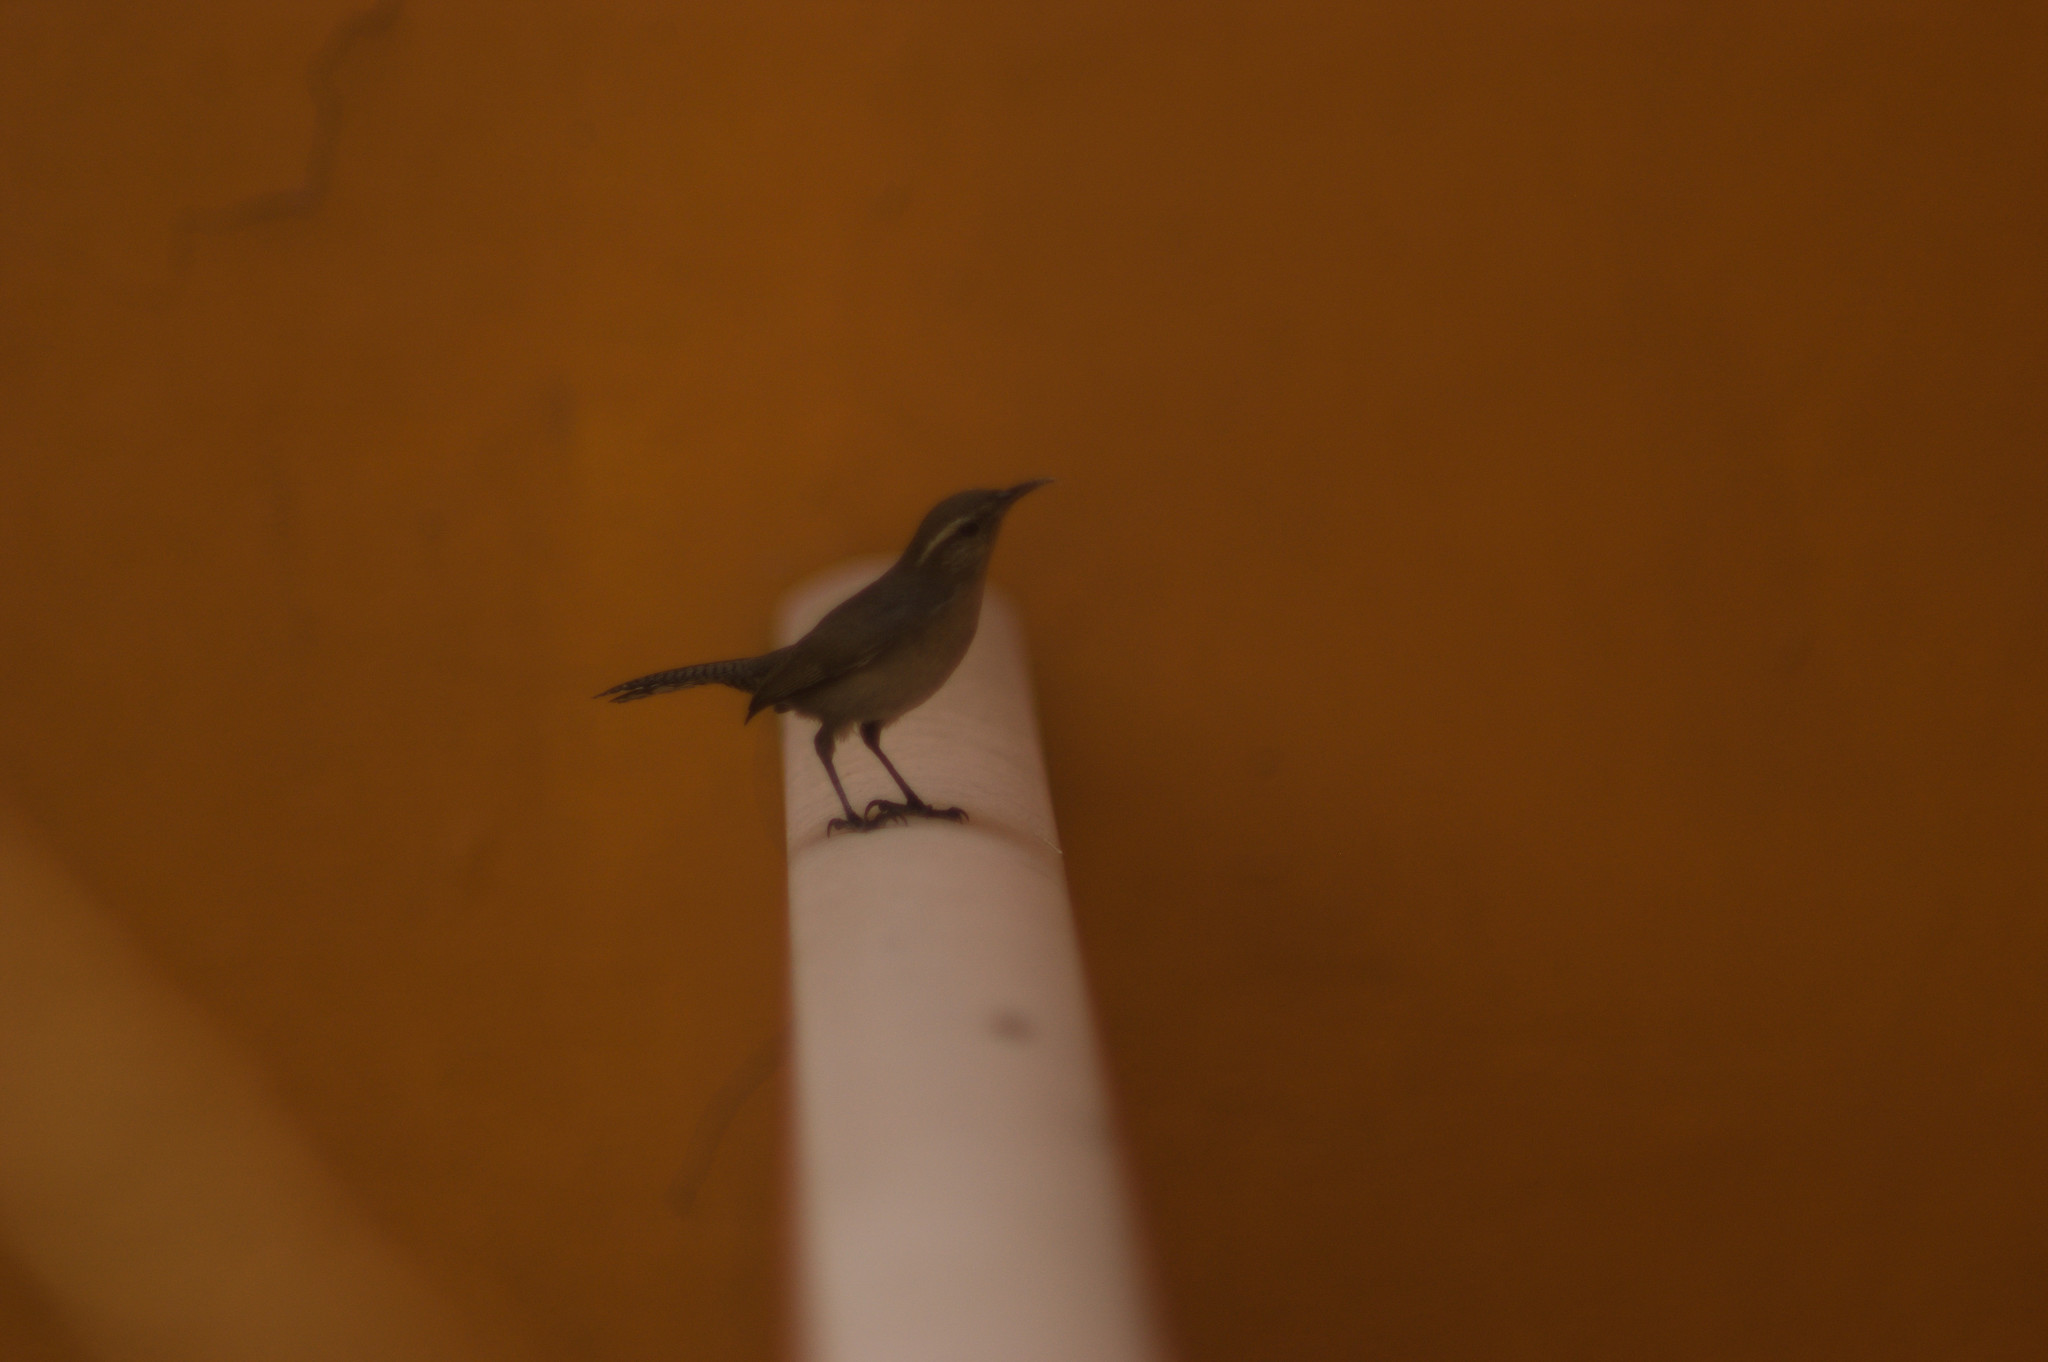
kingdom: Animalia
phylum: Chordata
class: Aves
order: Passeriformes
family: Troglodytidae
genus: Thryomanes
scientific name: Thryomanes bewickii
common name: Bewick's wren
